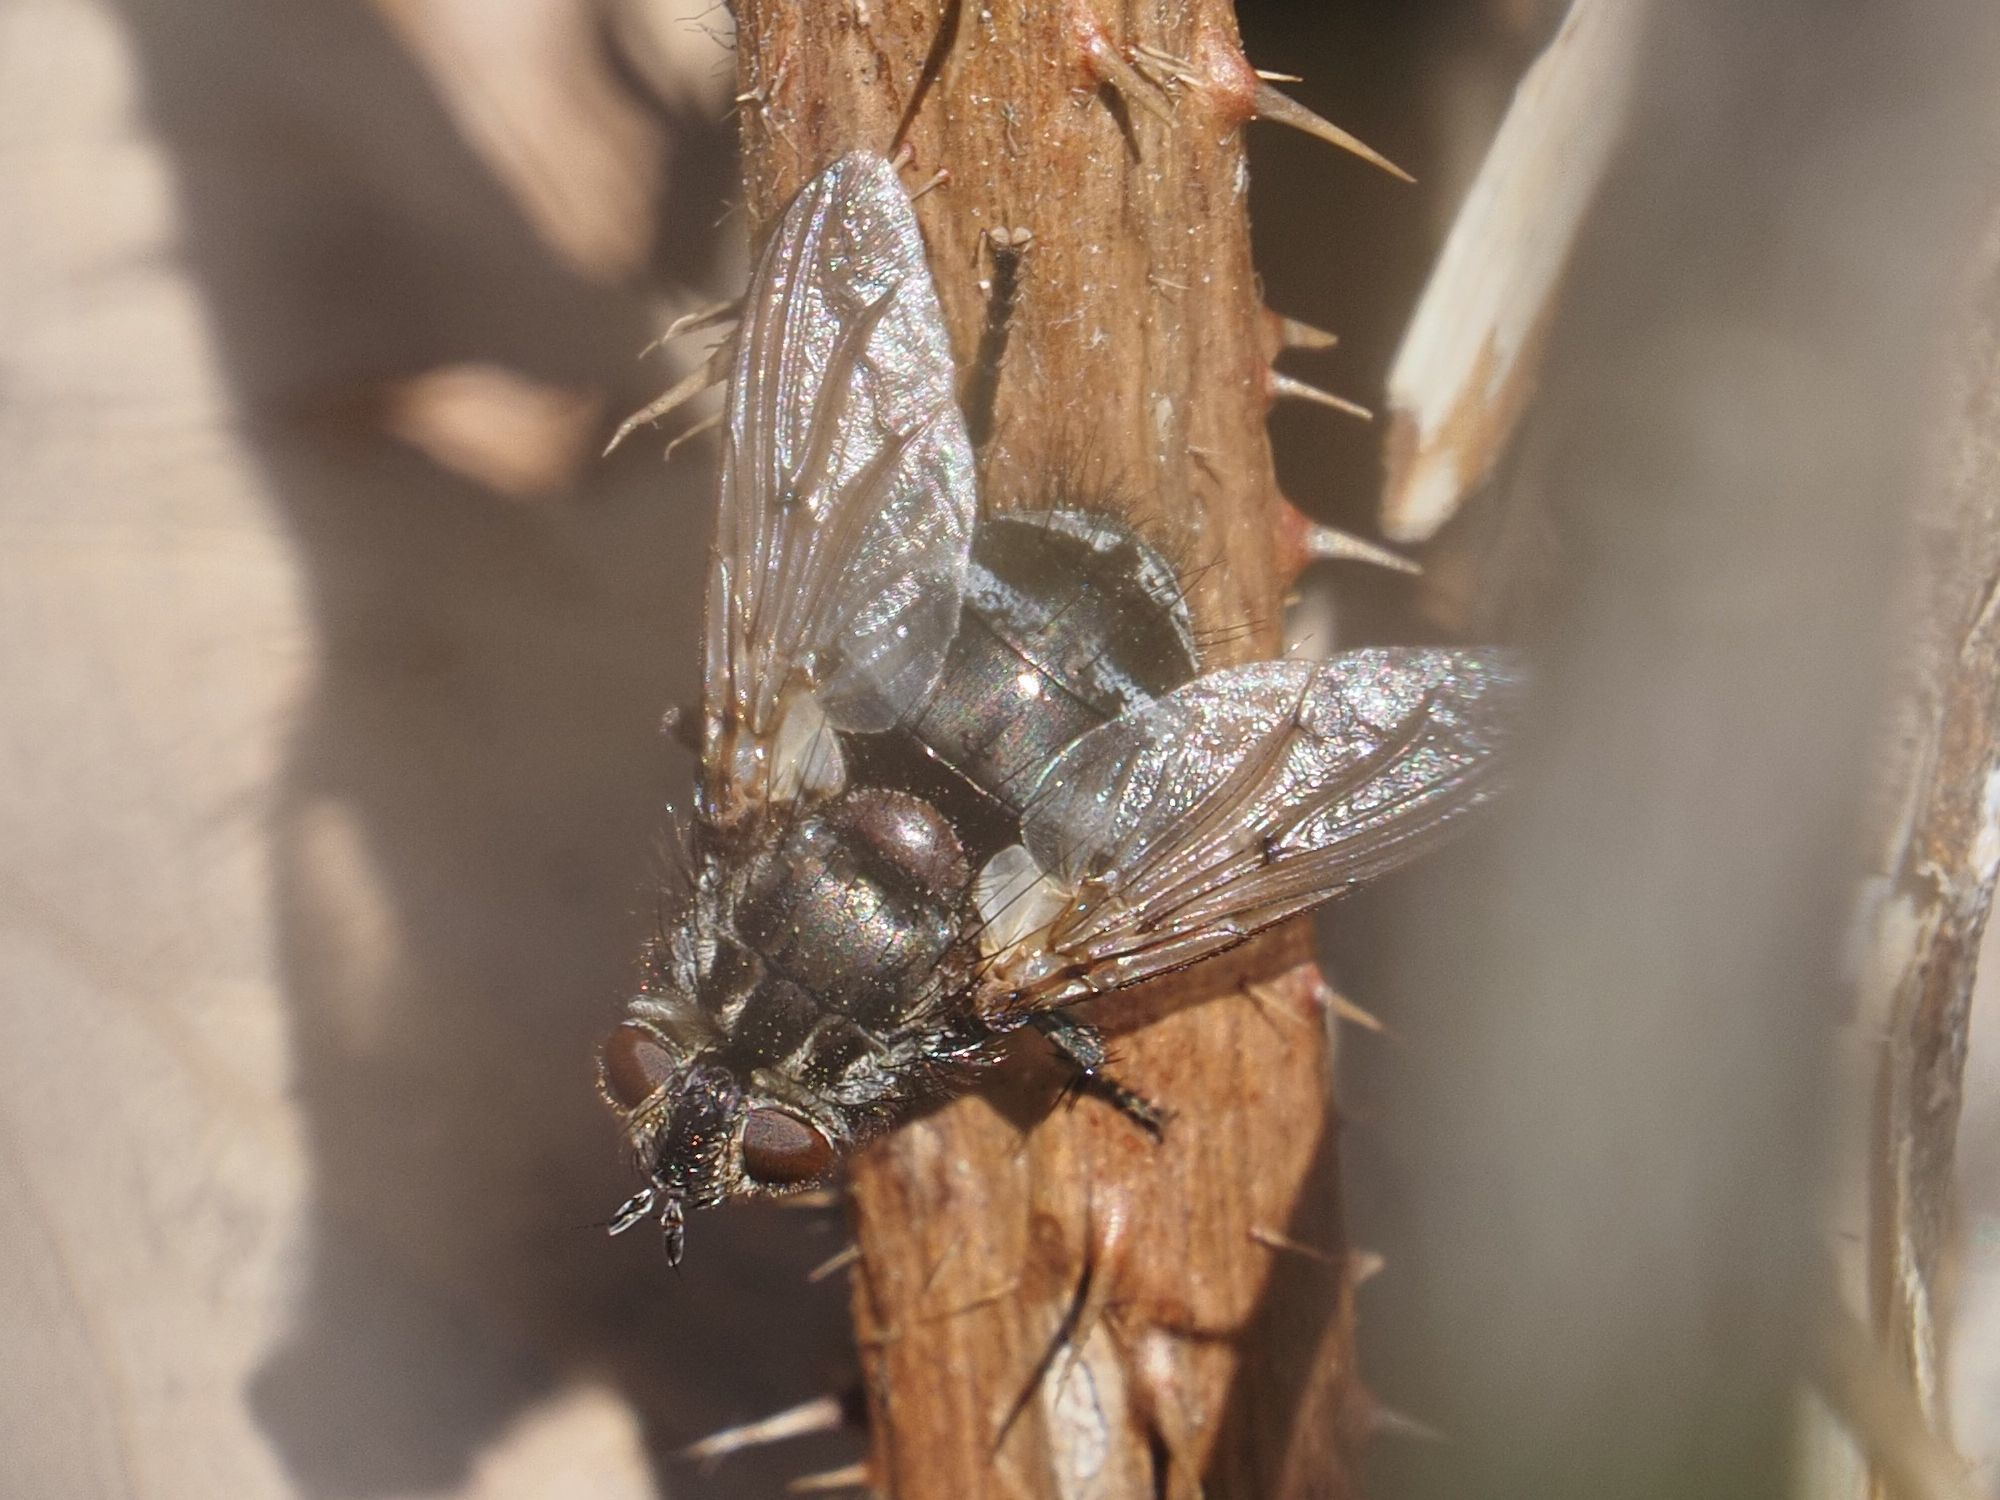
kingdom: Animalia
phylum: Arthropoda
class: Insecta
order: Diptera
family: Tachinidae
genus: Panzeria
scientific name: Panzeria puparum
